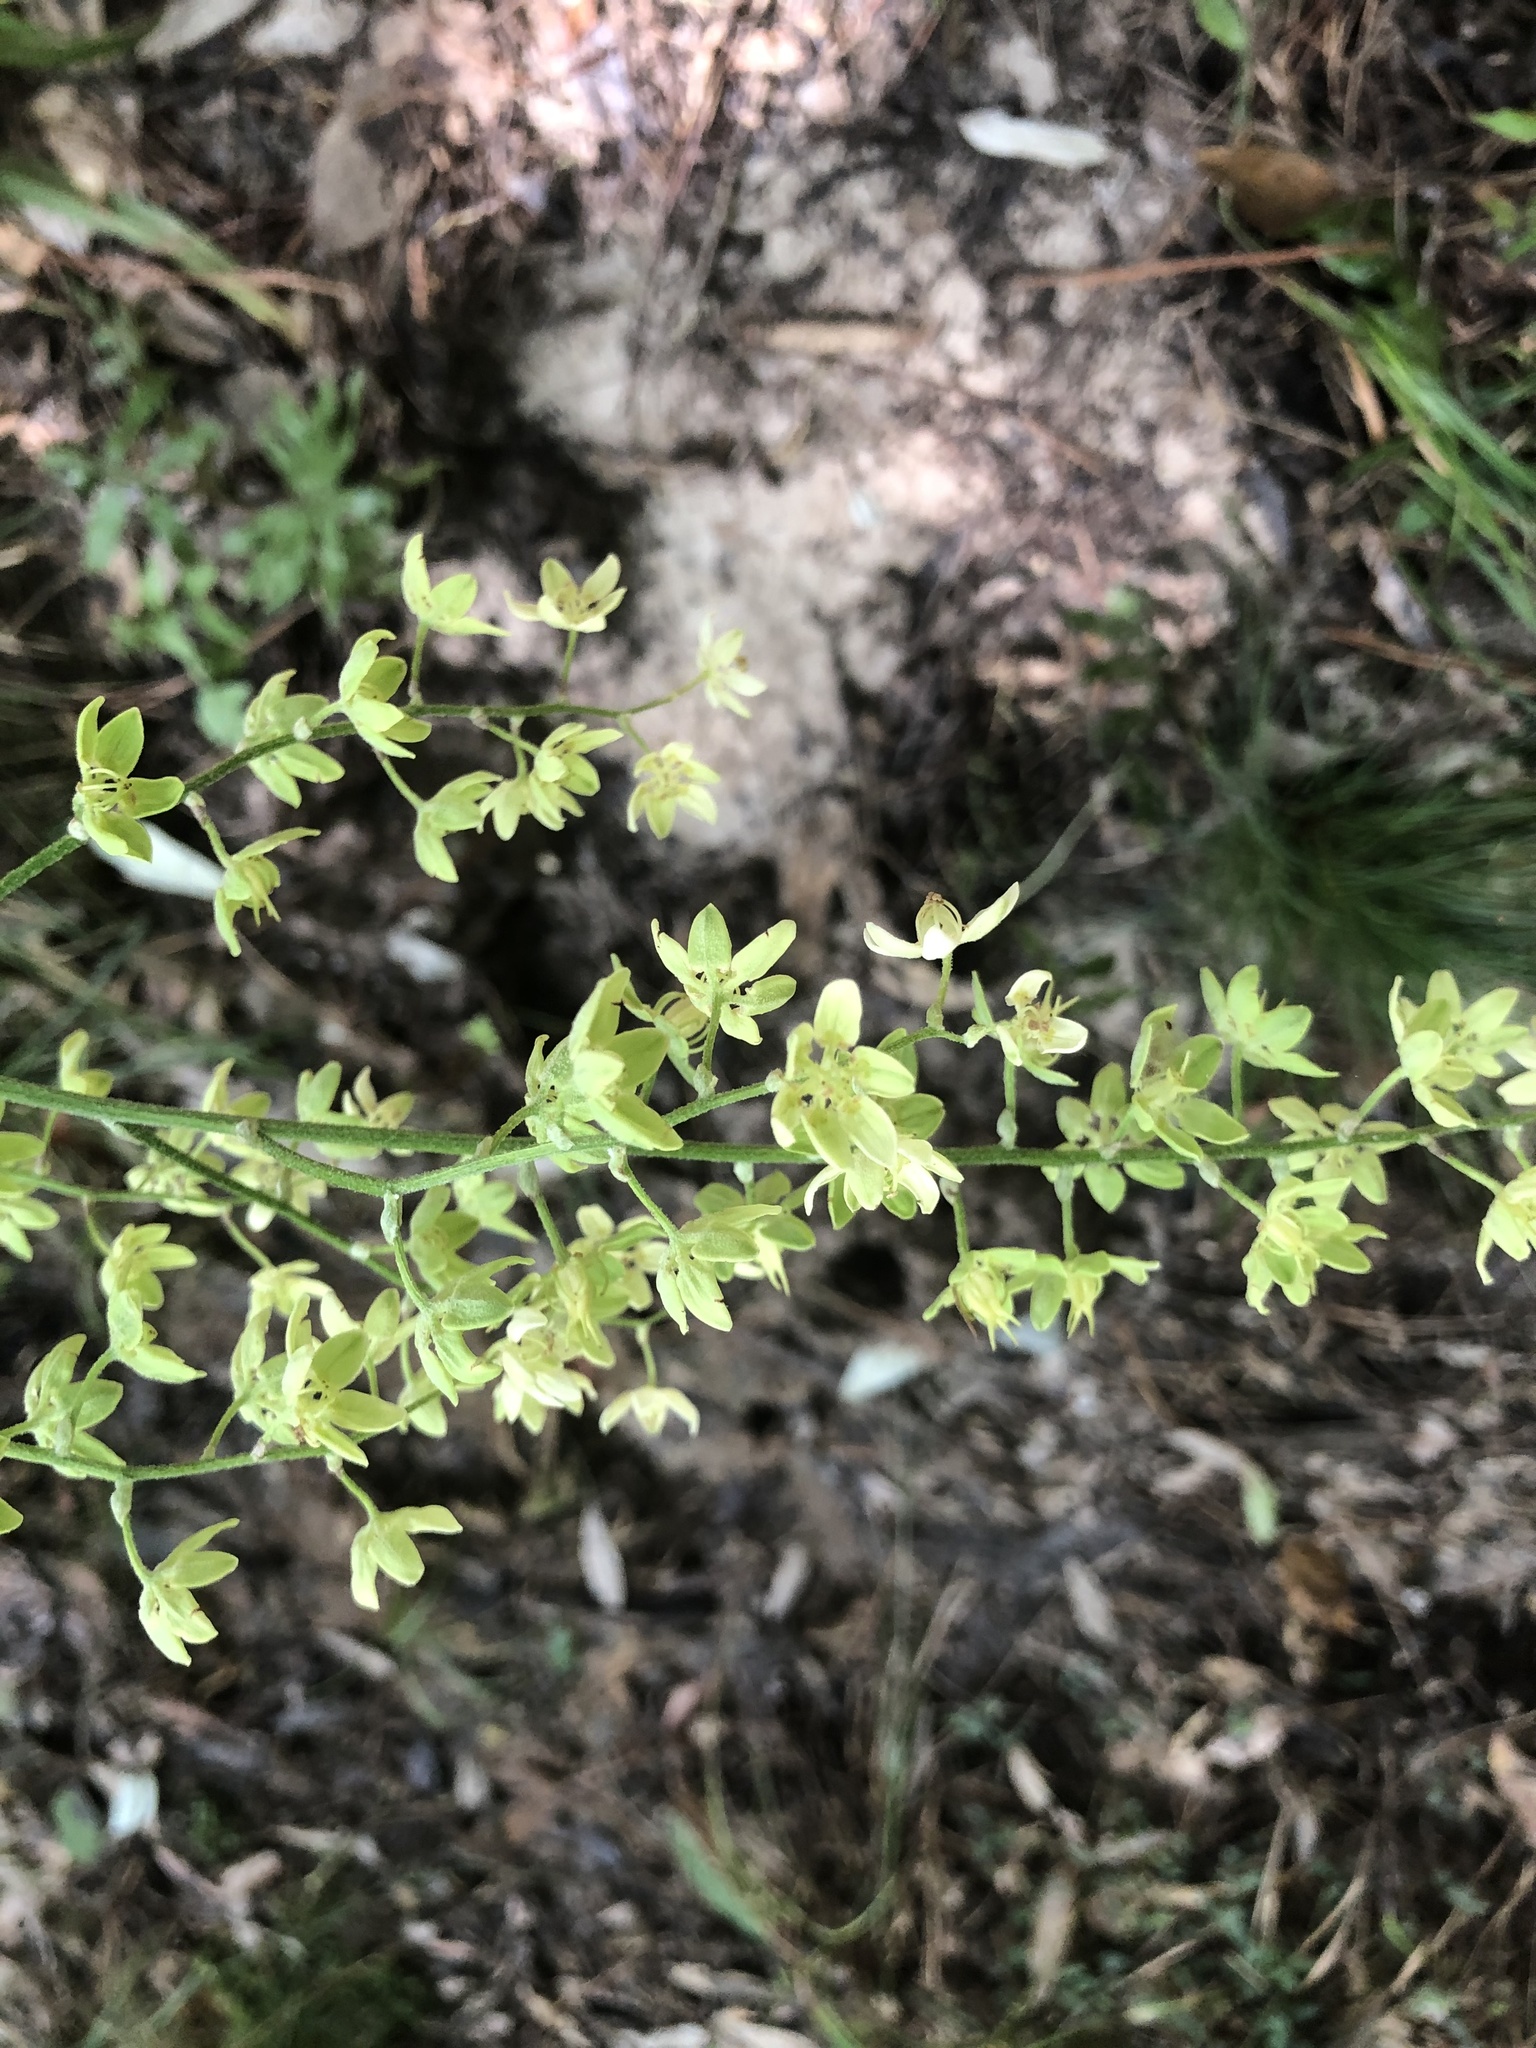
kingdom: Plantae
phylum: Tracheophyta
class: Liliopsida
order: Liliales
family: Melanthiaceae
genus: Melanthium
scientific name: Melanthium virginicum
